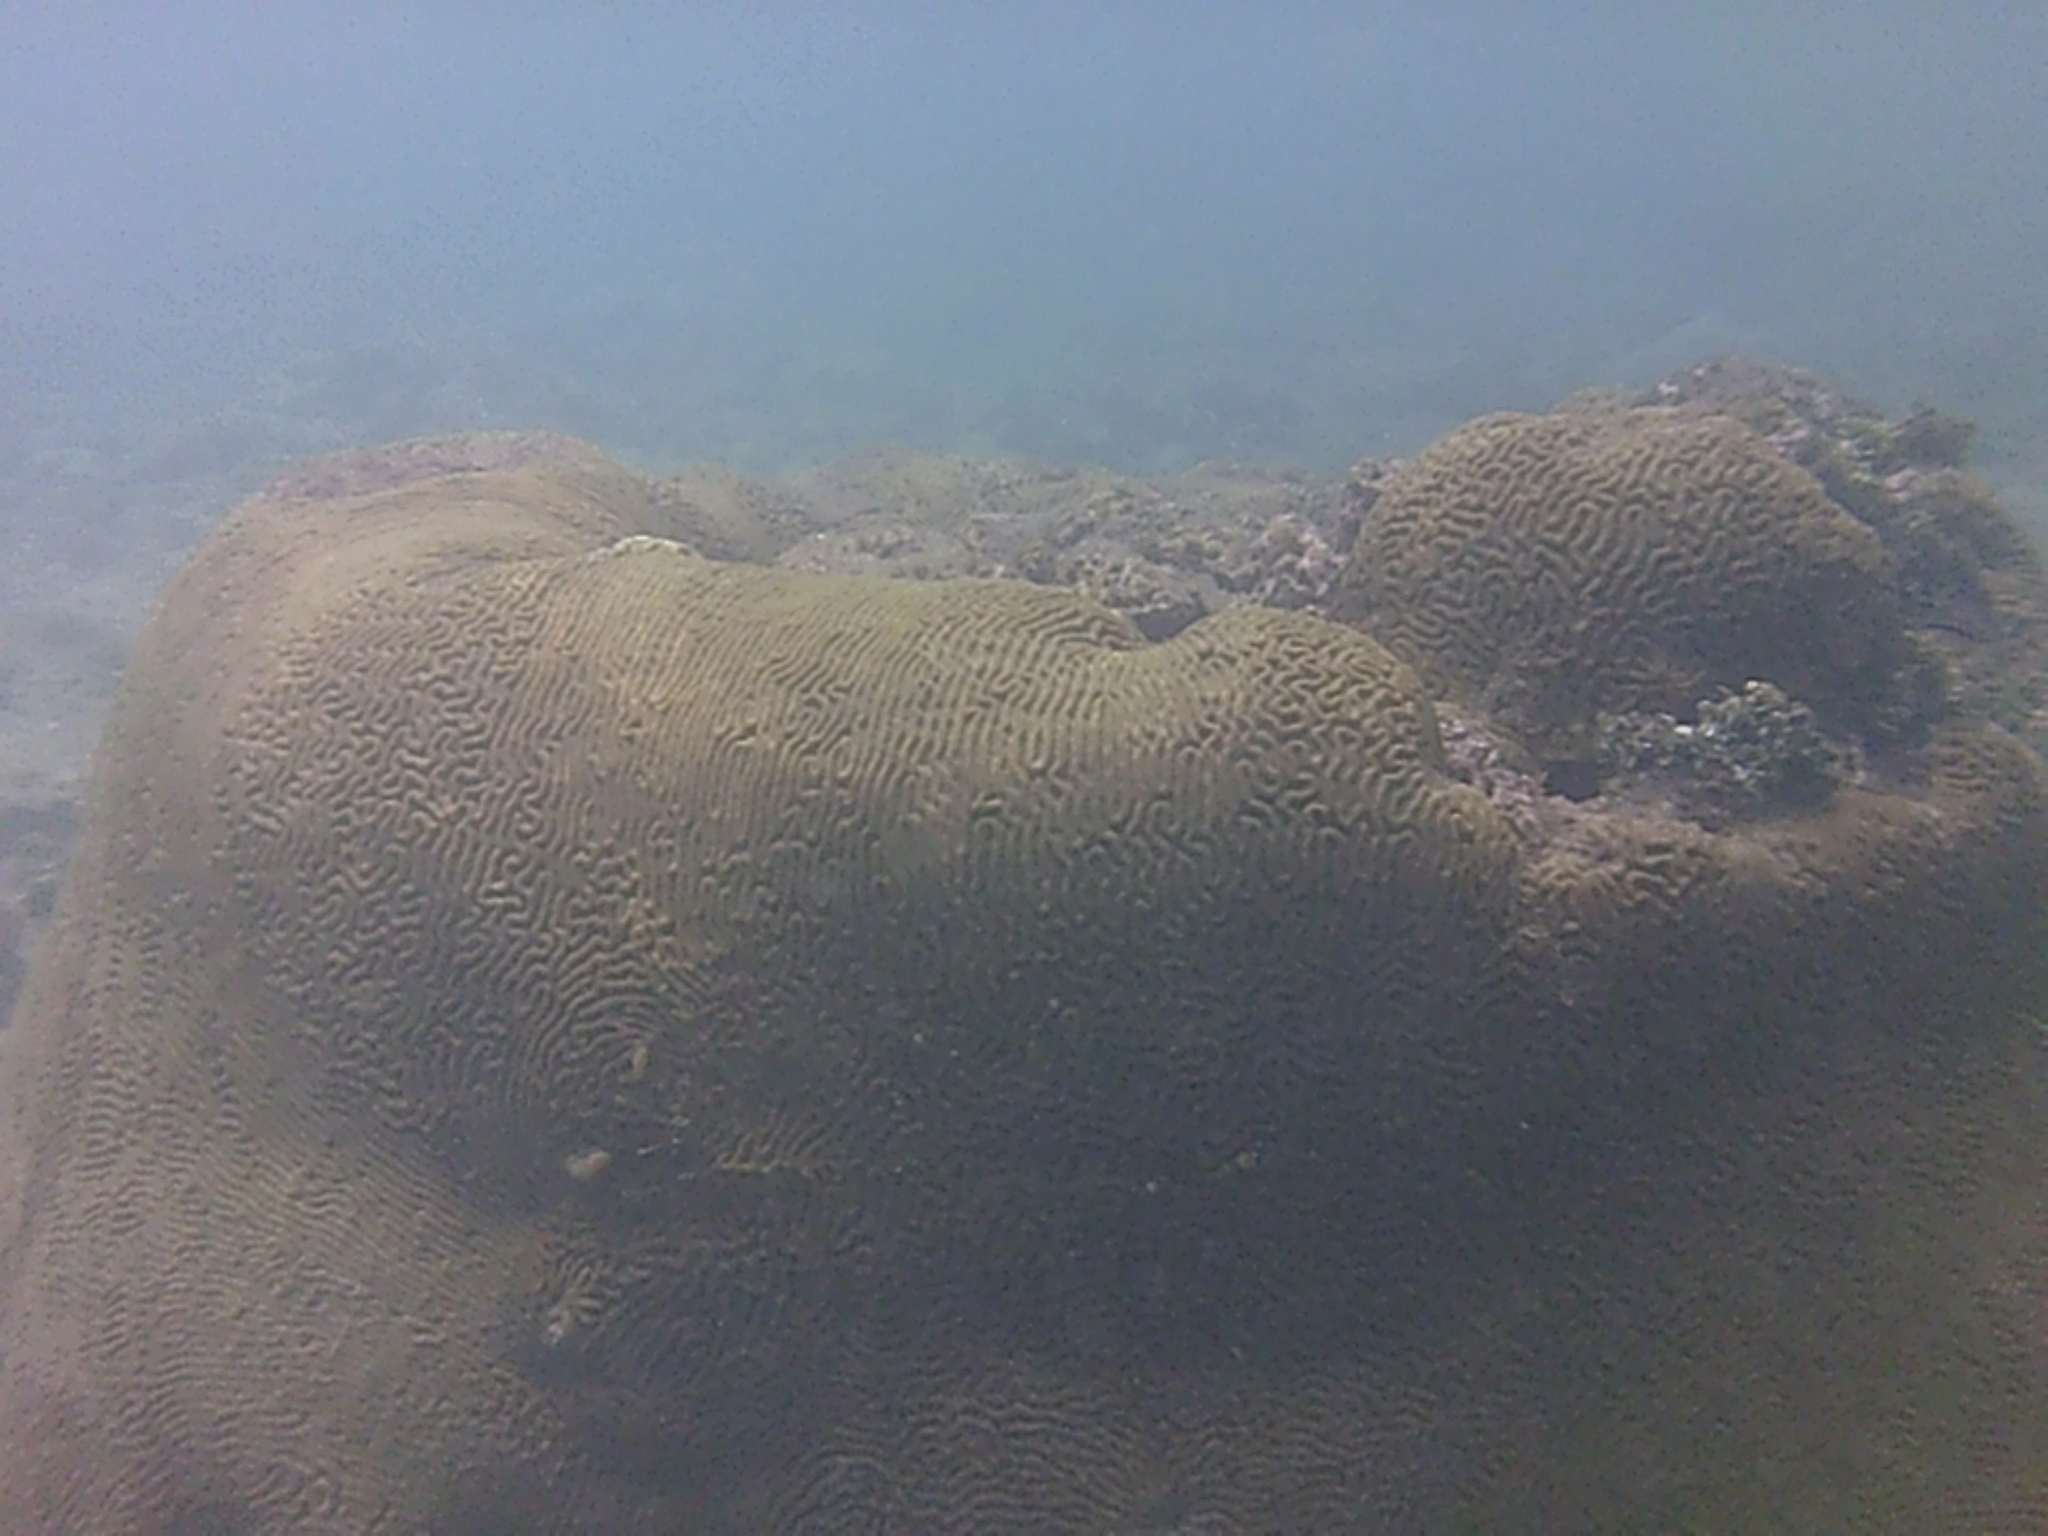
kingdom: Animalia
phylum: Cnidaria
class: Anthozoa
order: Scleractinia
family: Faviidae
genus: Pseudodiploria
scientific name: Pseudodiploria strigosa
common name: Symmetrical brain coral
